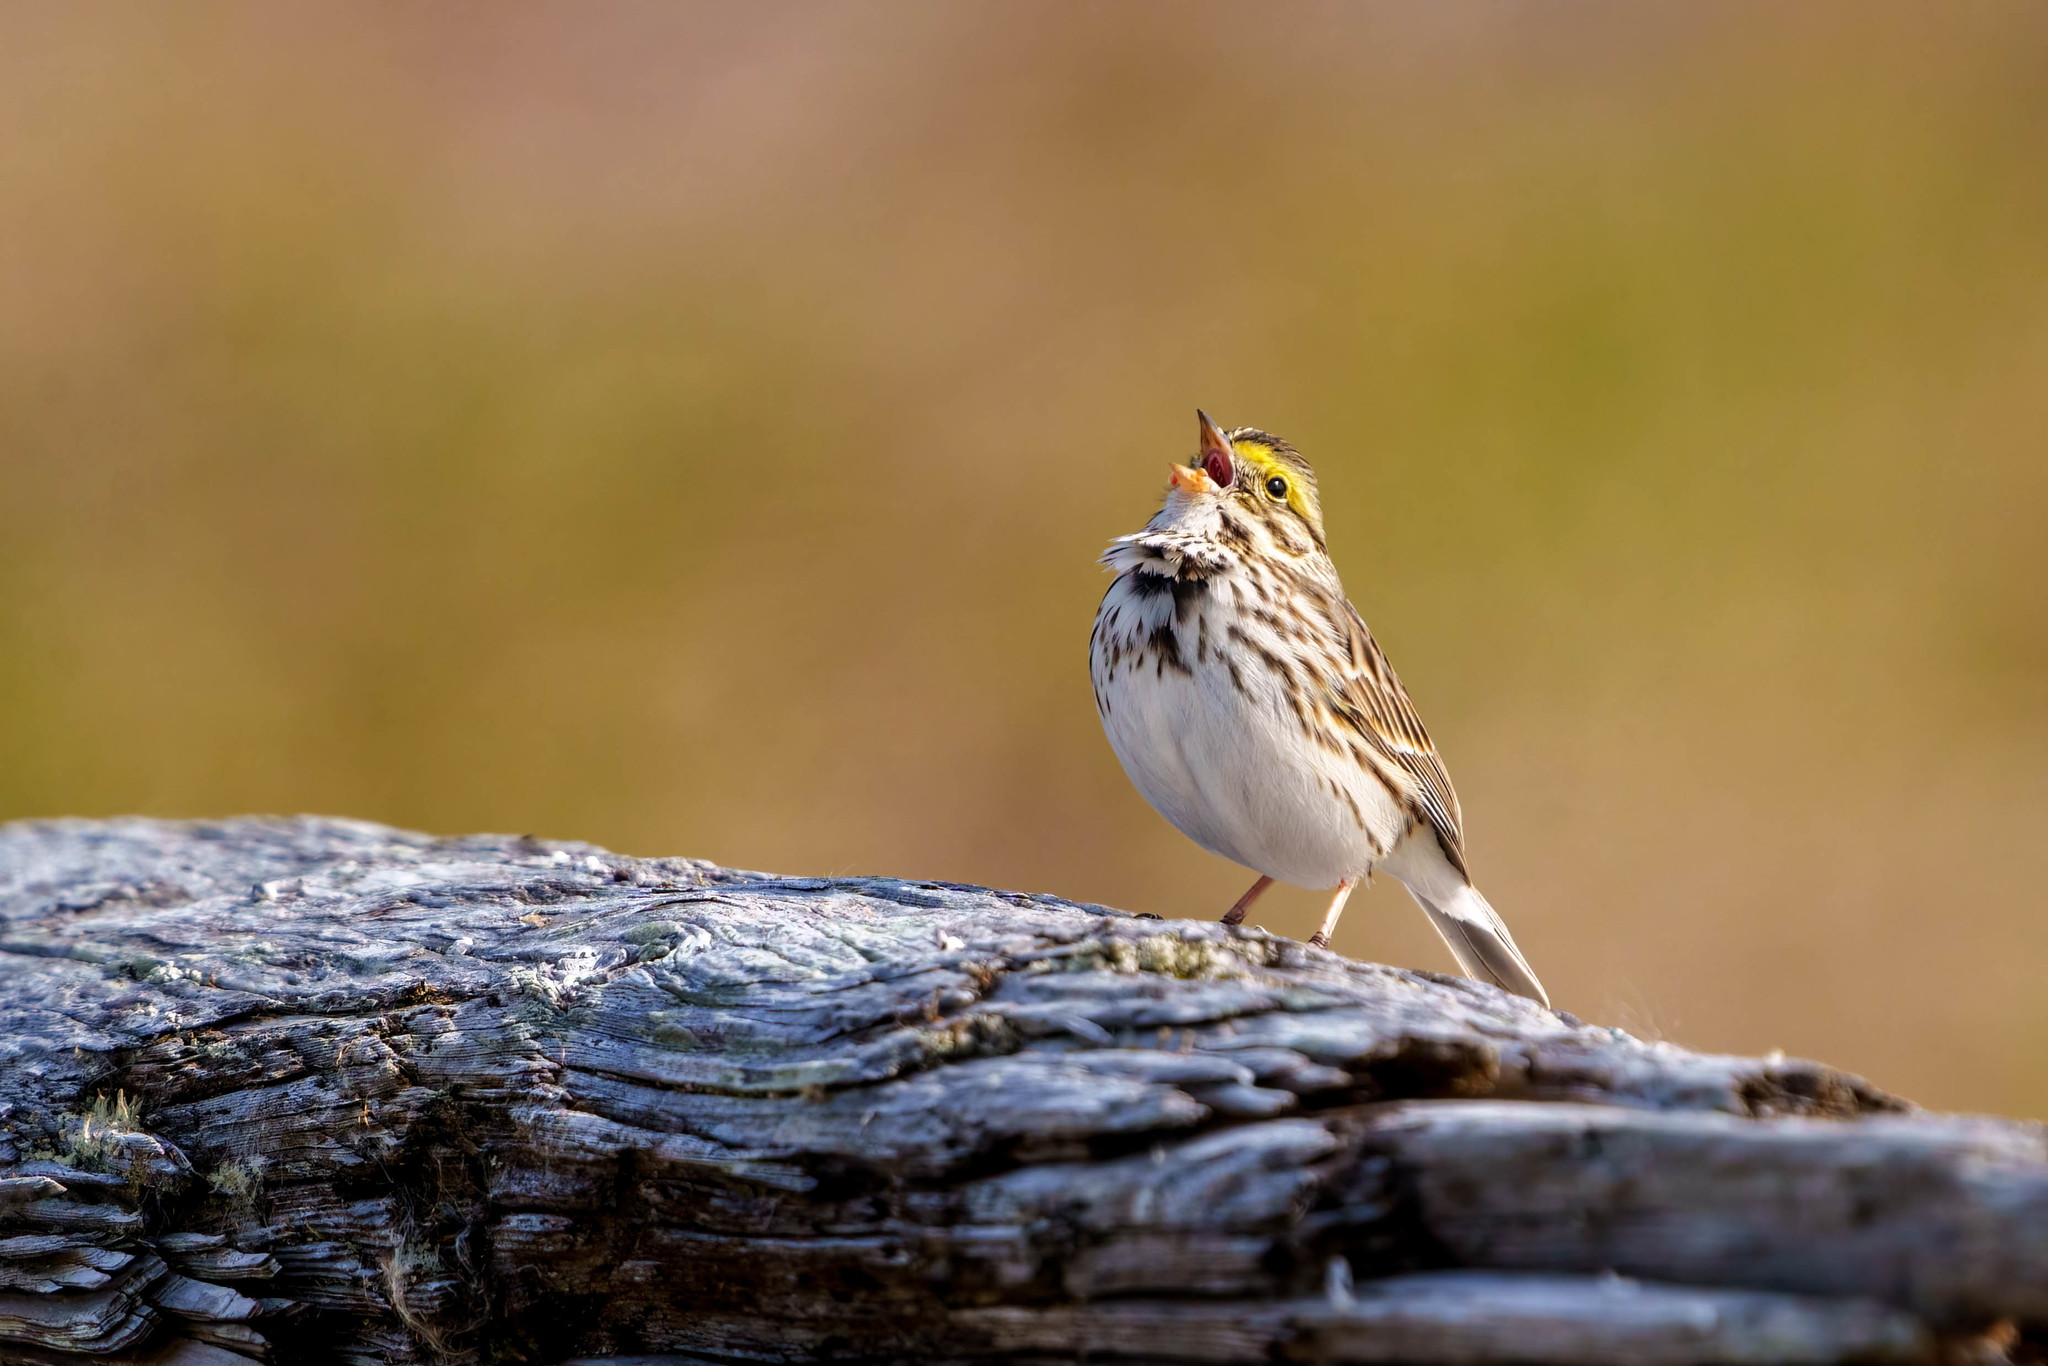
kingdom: Animalia
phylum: Chordata
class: Aves
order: Passeriformes
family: Passerellidae
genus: Passerculus
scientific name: Passerculus sandwichensis
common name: Savannah sparrow
